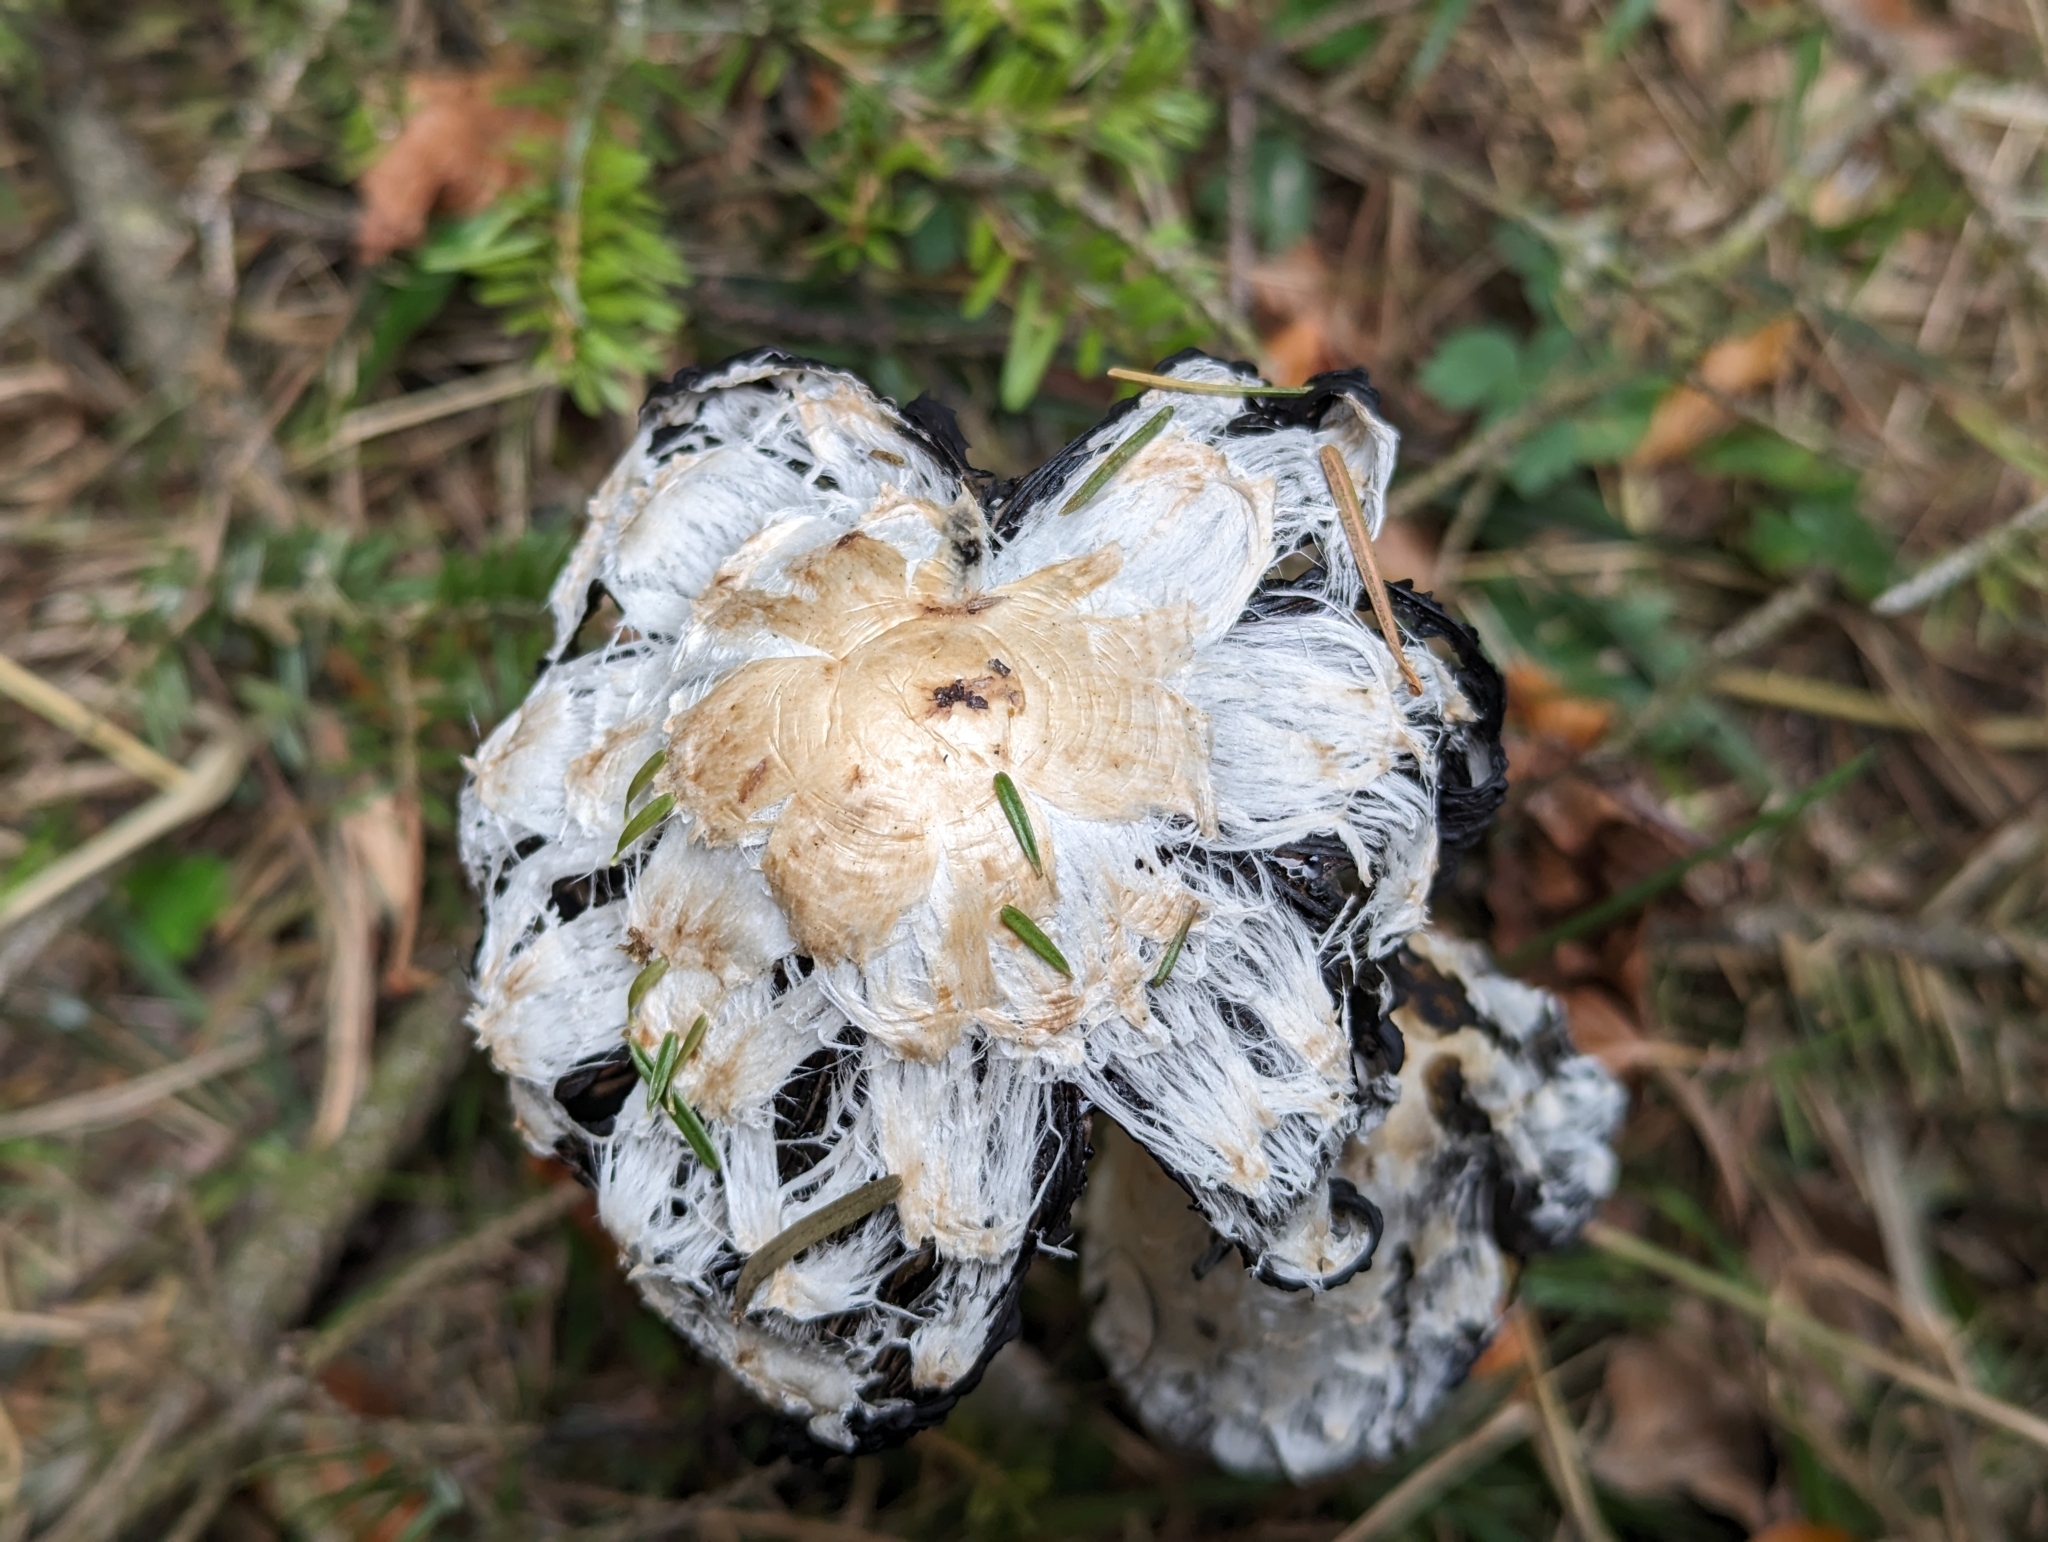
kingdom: Fungi
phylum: Basidiomycota
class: Agaricomycetes
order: Agaricales
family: Agaricaceae
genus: Coprinus
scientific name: Coprinus comatus
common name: Lawyer's wig
